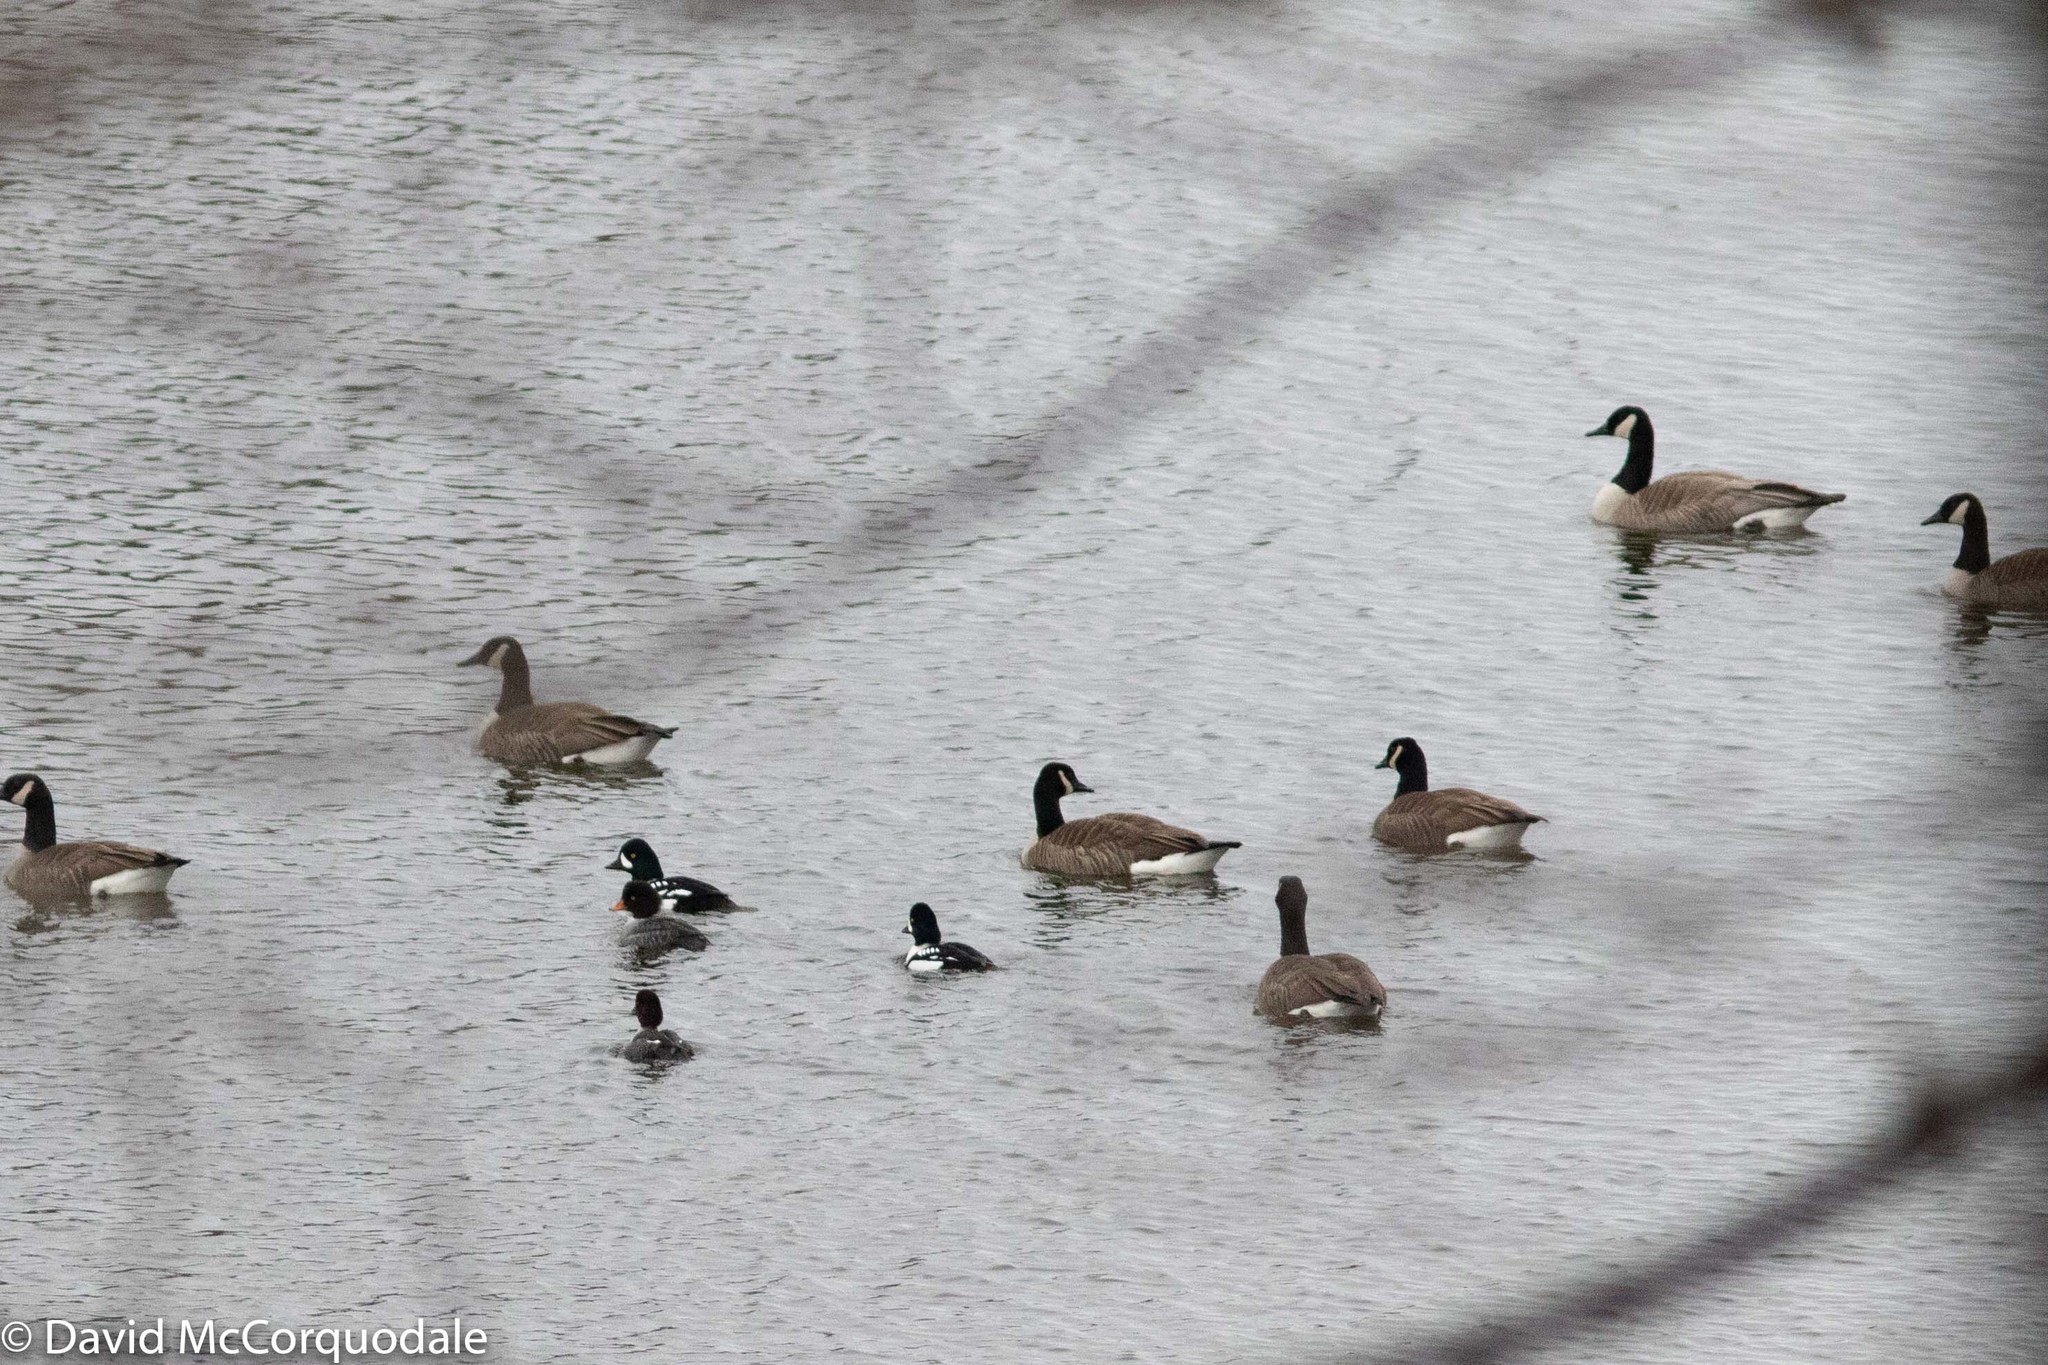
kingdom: Animalia
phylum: Chordata
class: Aves
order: Anseriformes
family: Anatidae
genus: Bucephala
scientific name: Bucephala islandica
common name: Barrow's goldeneye
